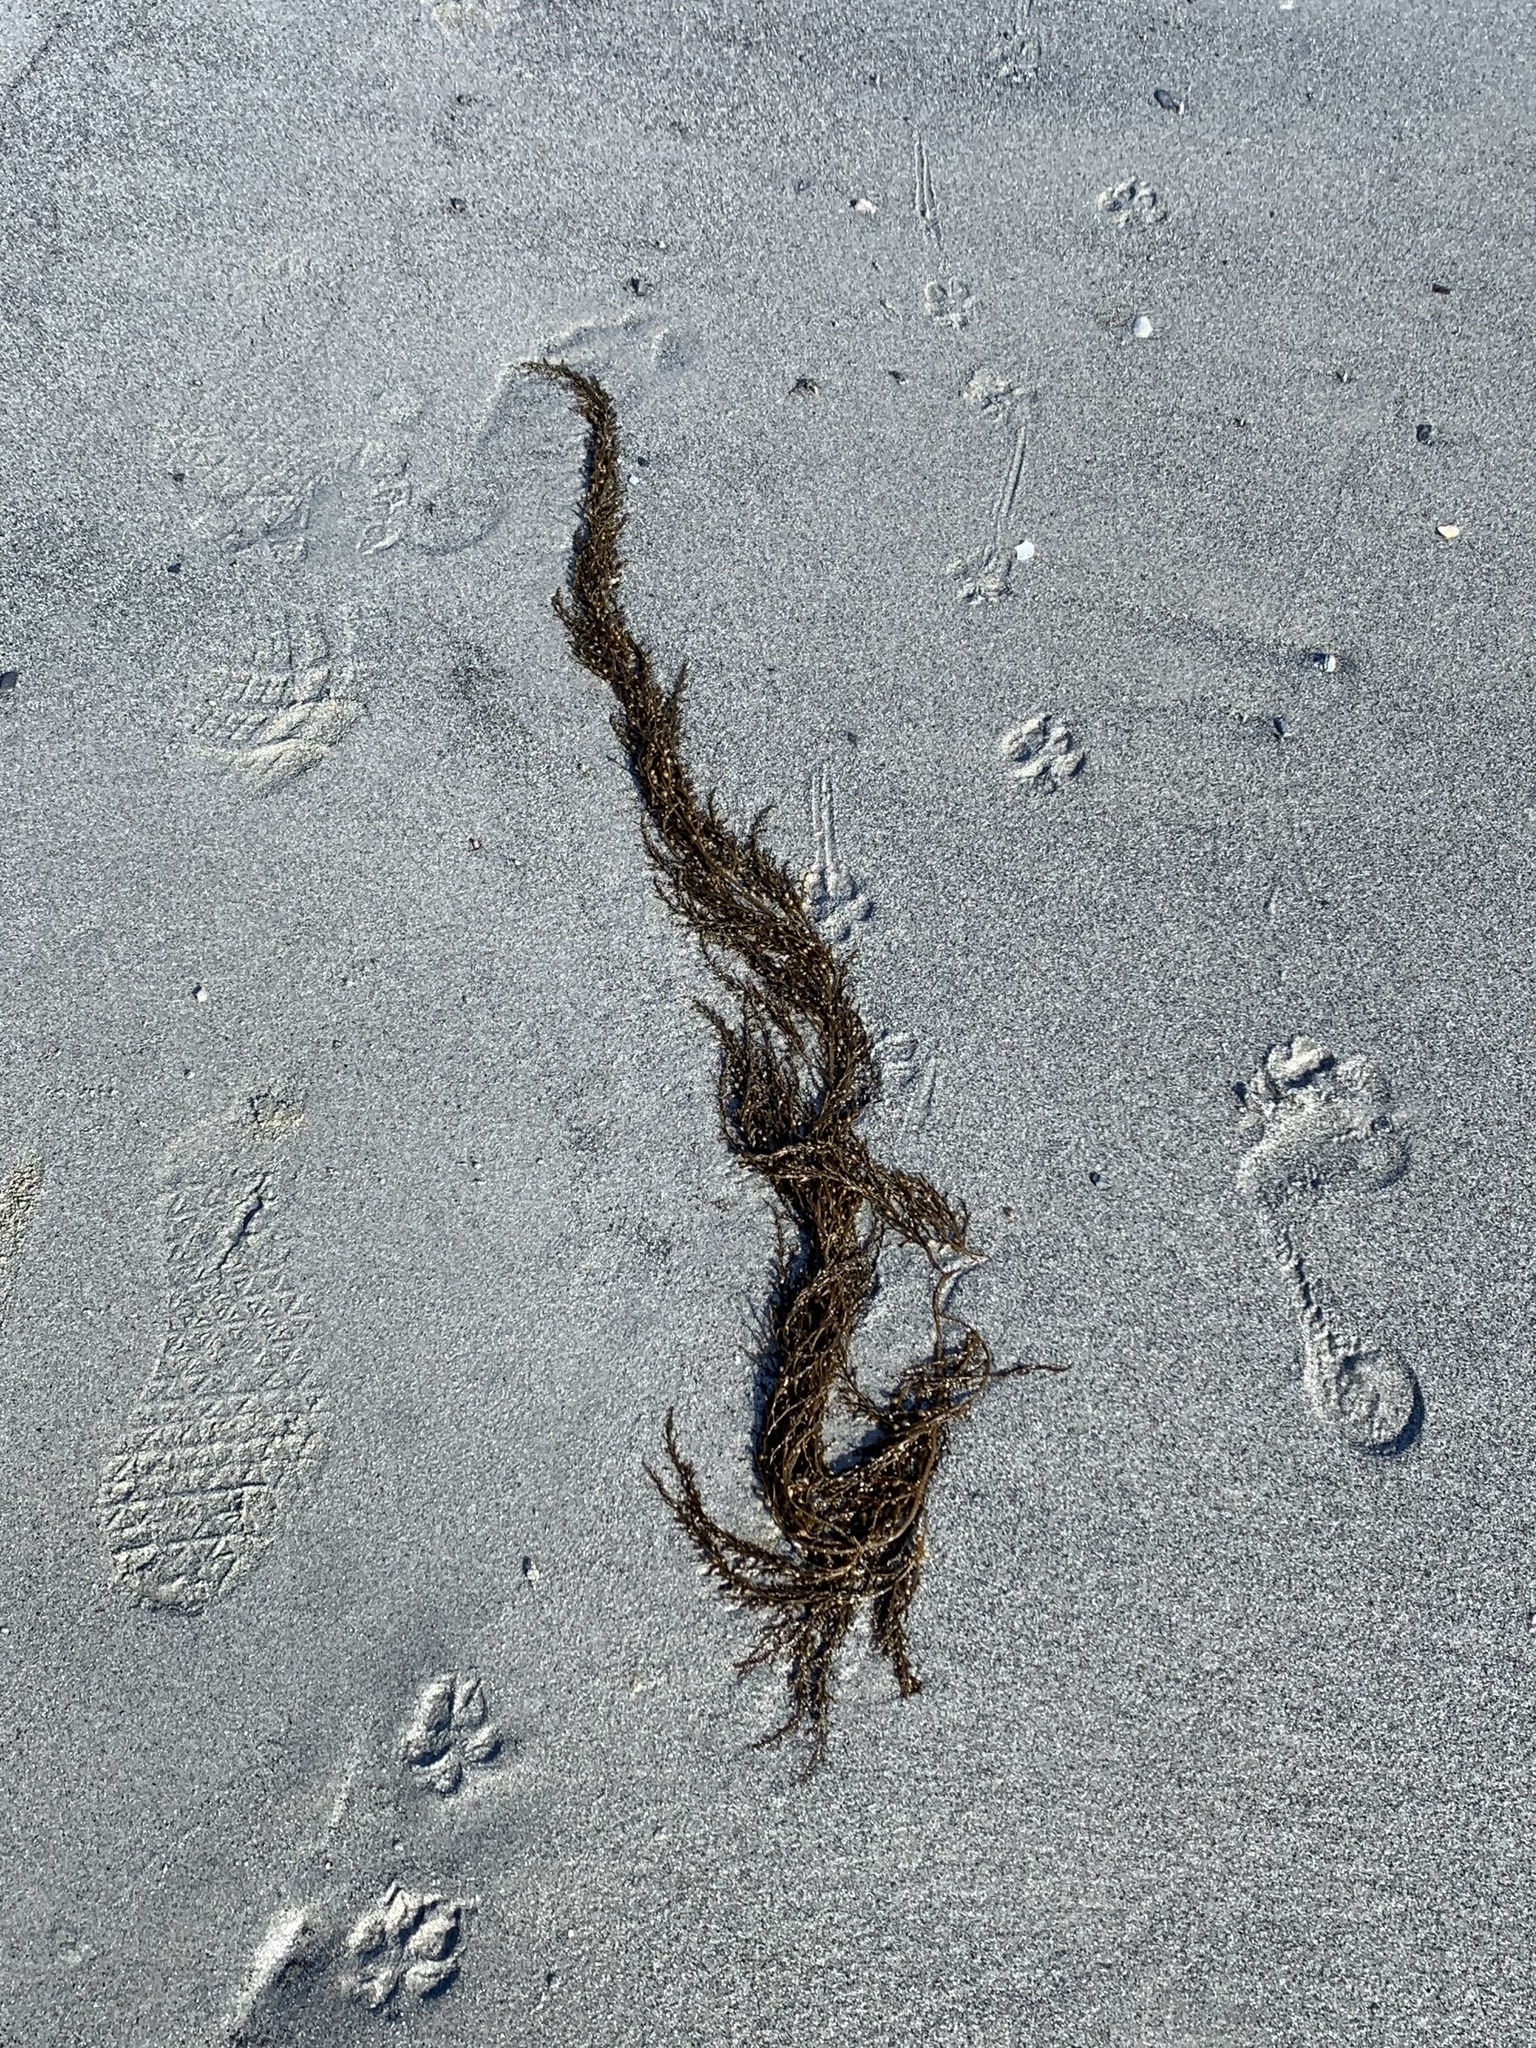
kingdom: Chromista
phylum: Ochrophyta
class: Phaeophyceae
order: Fucales
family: Sargassaceae
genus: Sargassum
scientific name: Sargassum muticum
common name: Japweed
